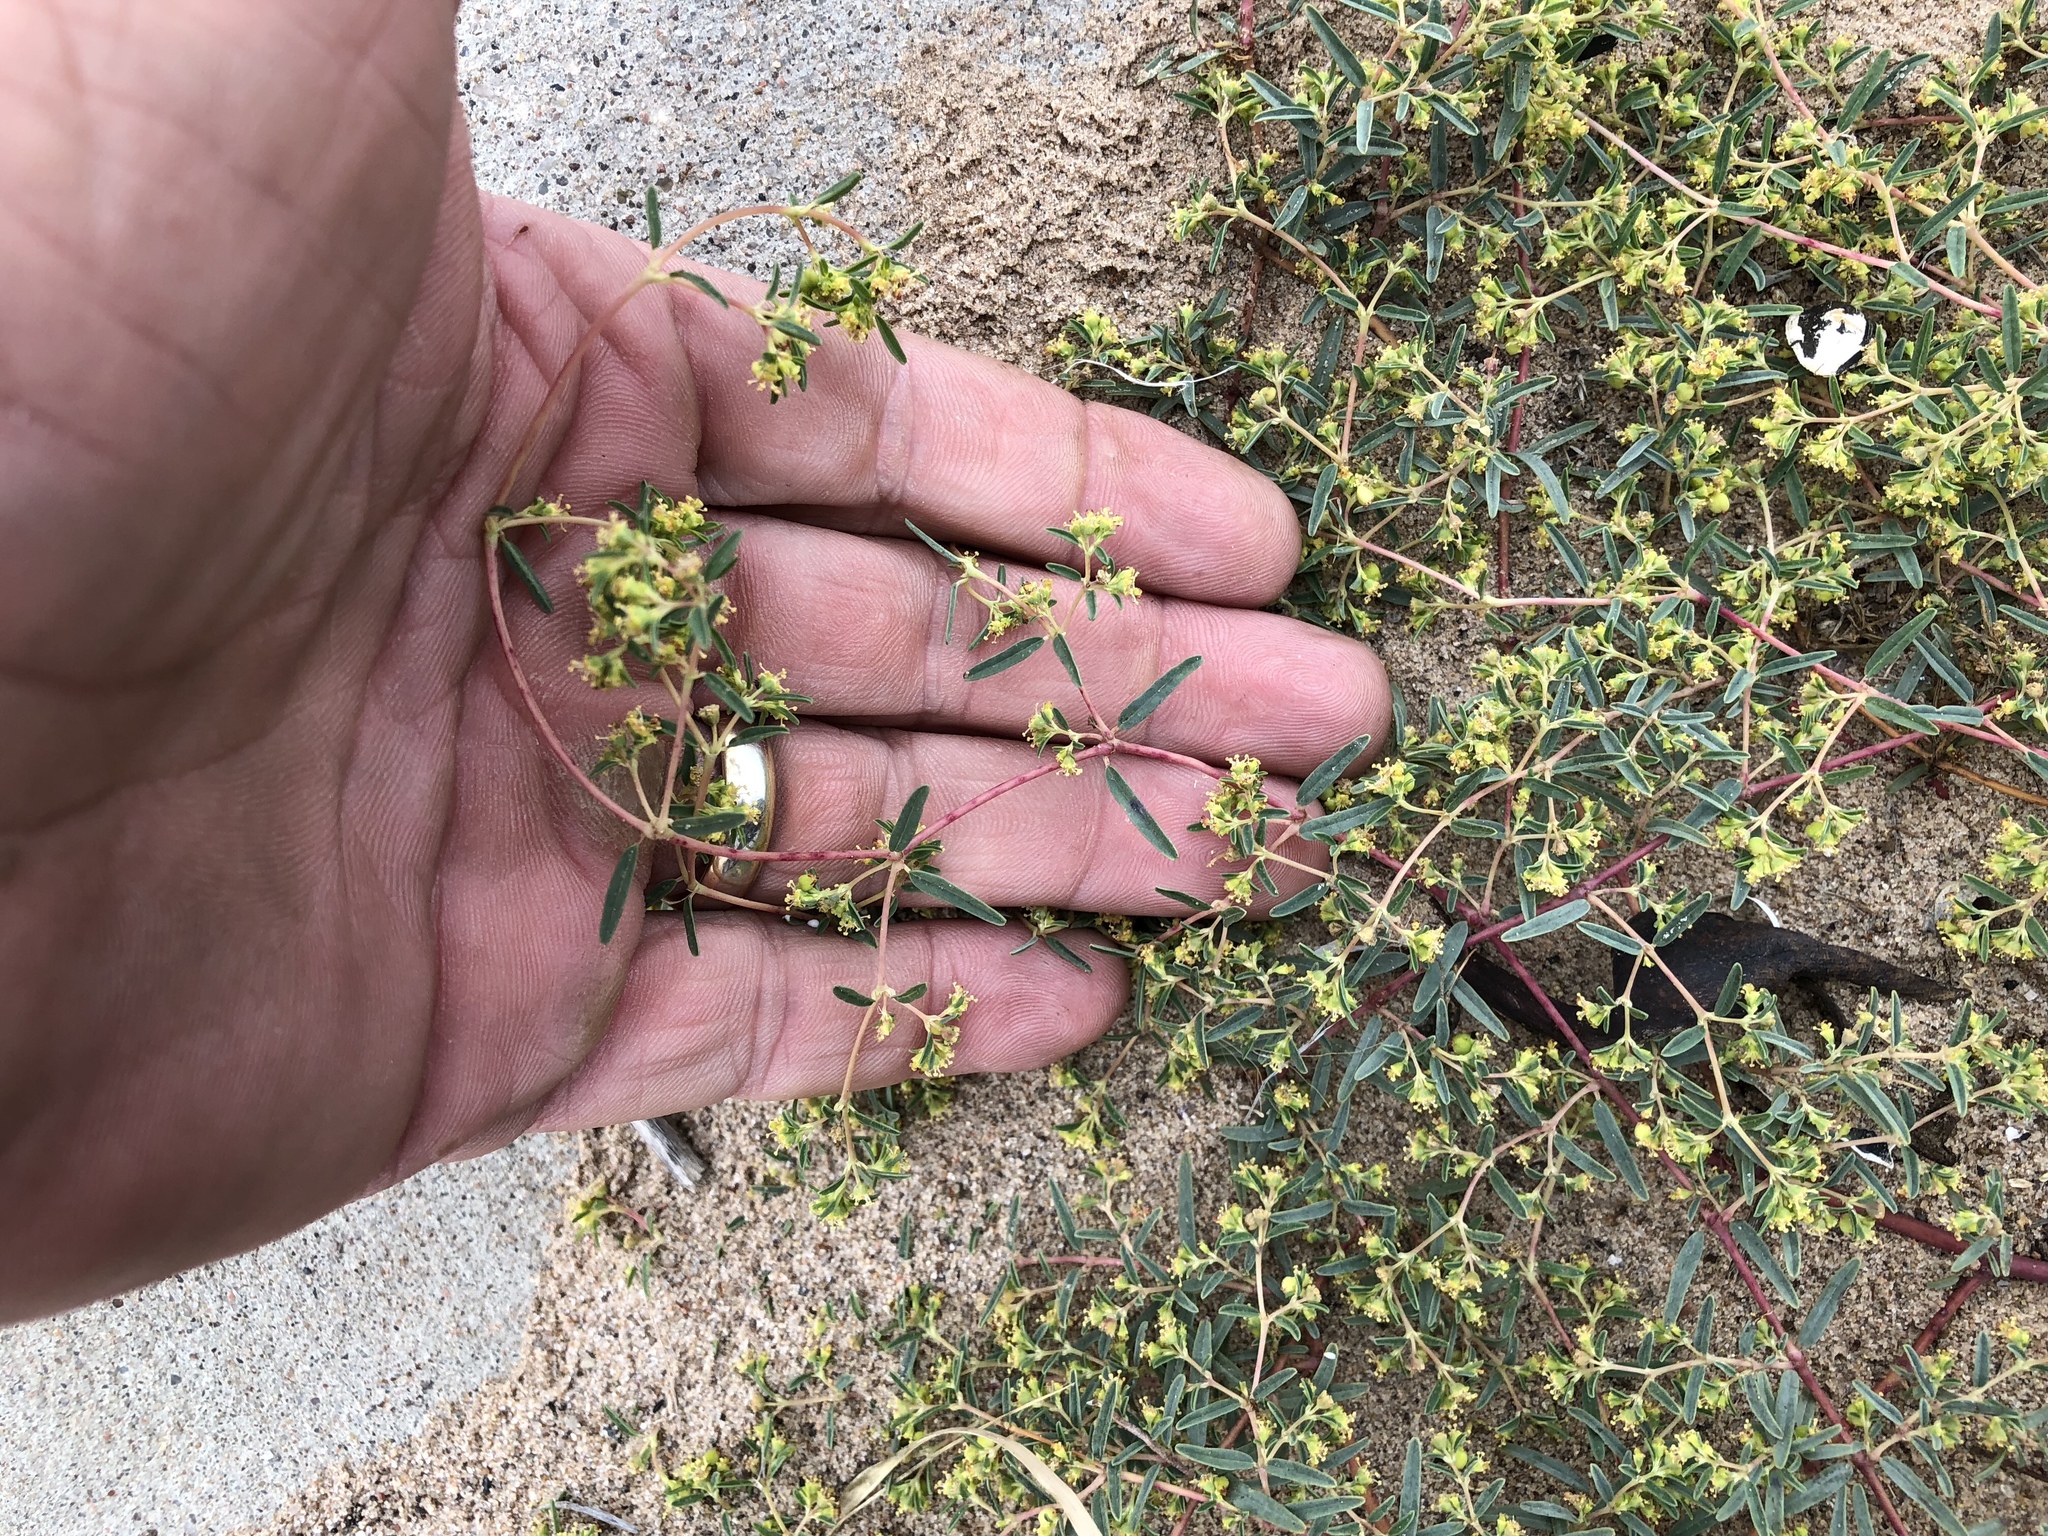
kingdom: Plantae
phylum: Tracheophyta
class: Magnoliopsida
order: Malpighiales
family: Euphorbiaceae
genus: Euphorbia
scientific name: Euphorbia parryi
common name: Dune spurge
